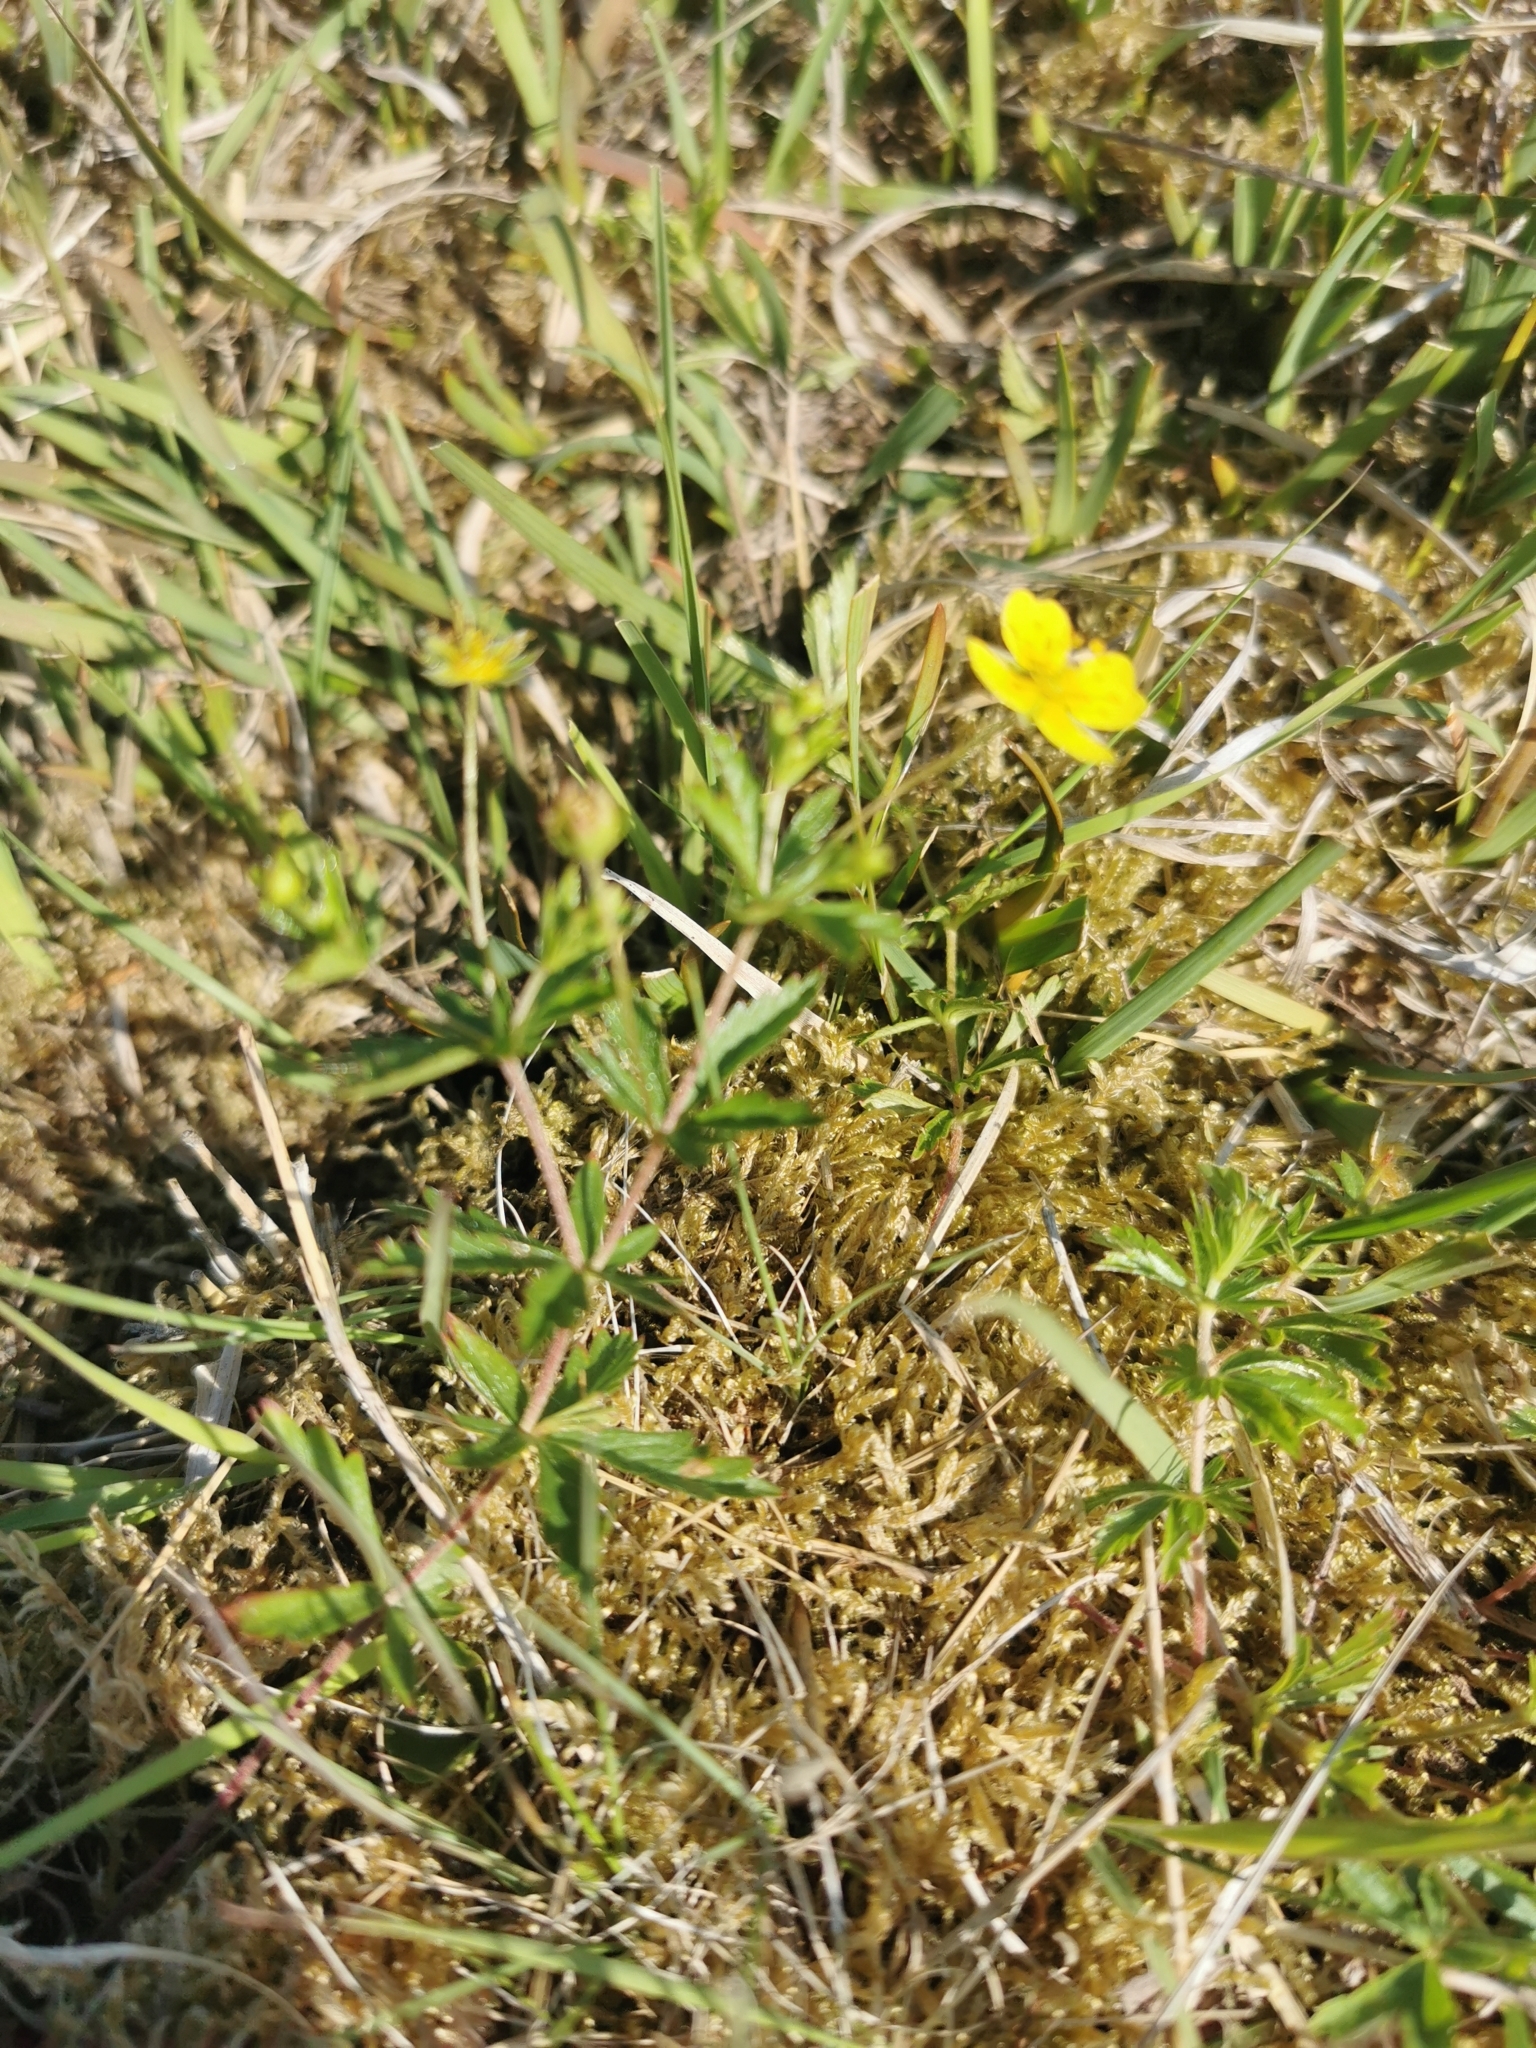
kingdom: Plantae
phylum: Tracheophyta
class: Magnoliopsida
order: Rosales
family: Rosaceae
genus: Potentilla
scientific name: Potentilla erecta
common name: Tormentil
